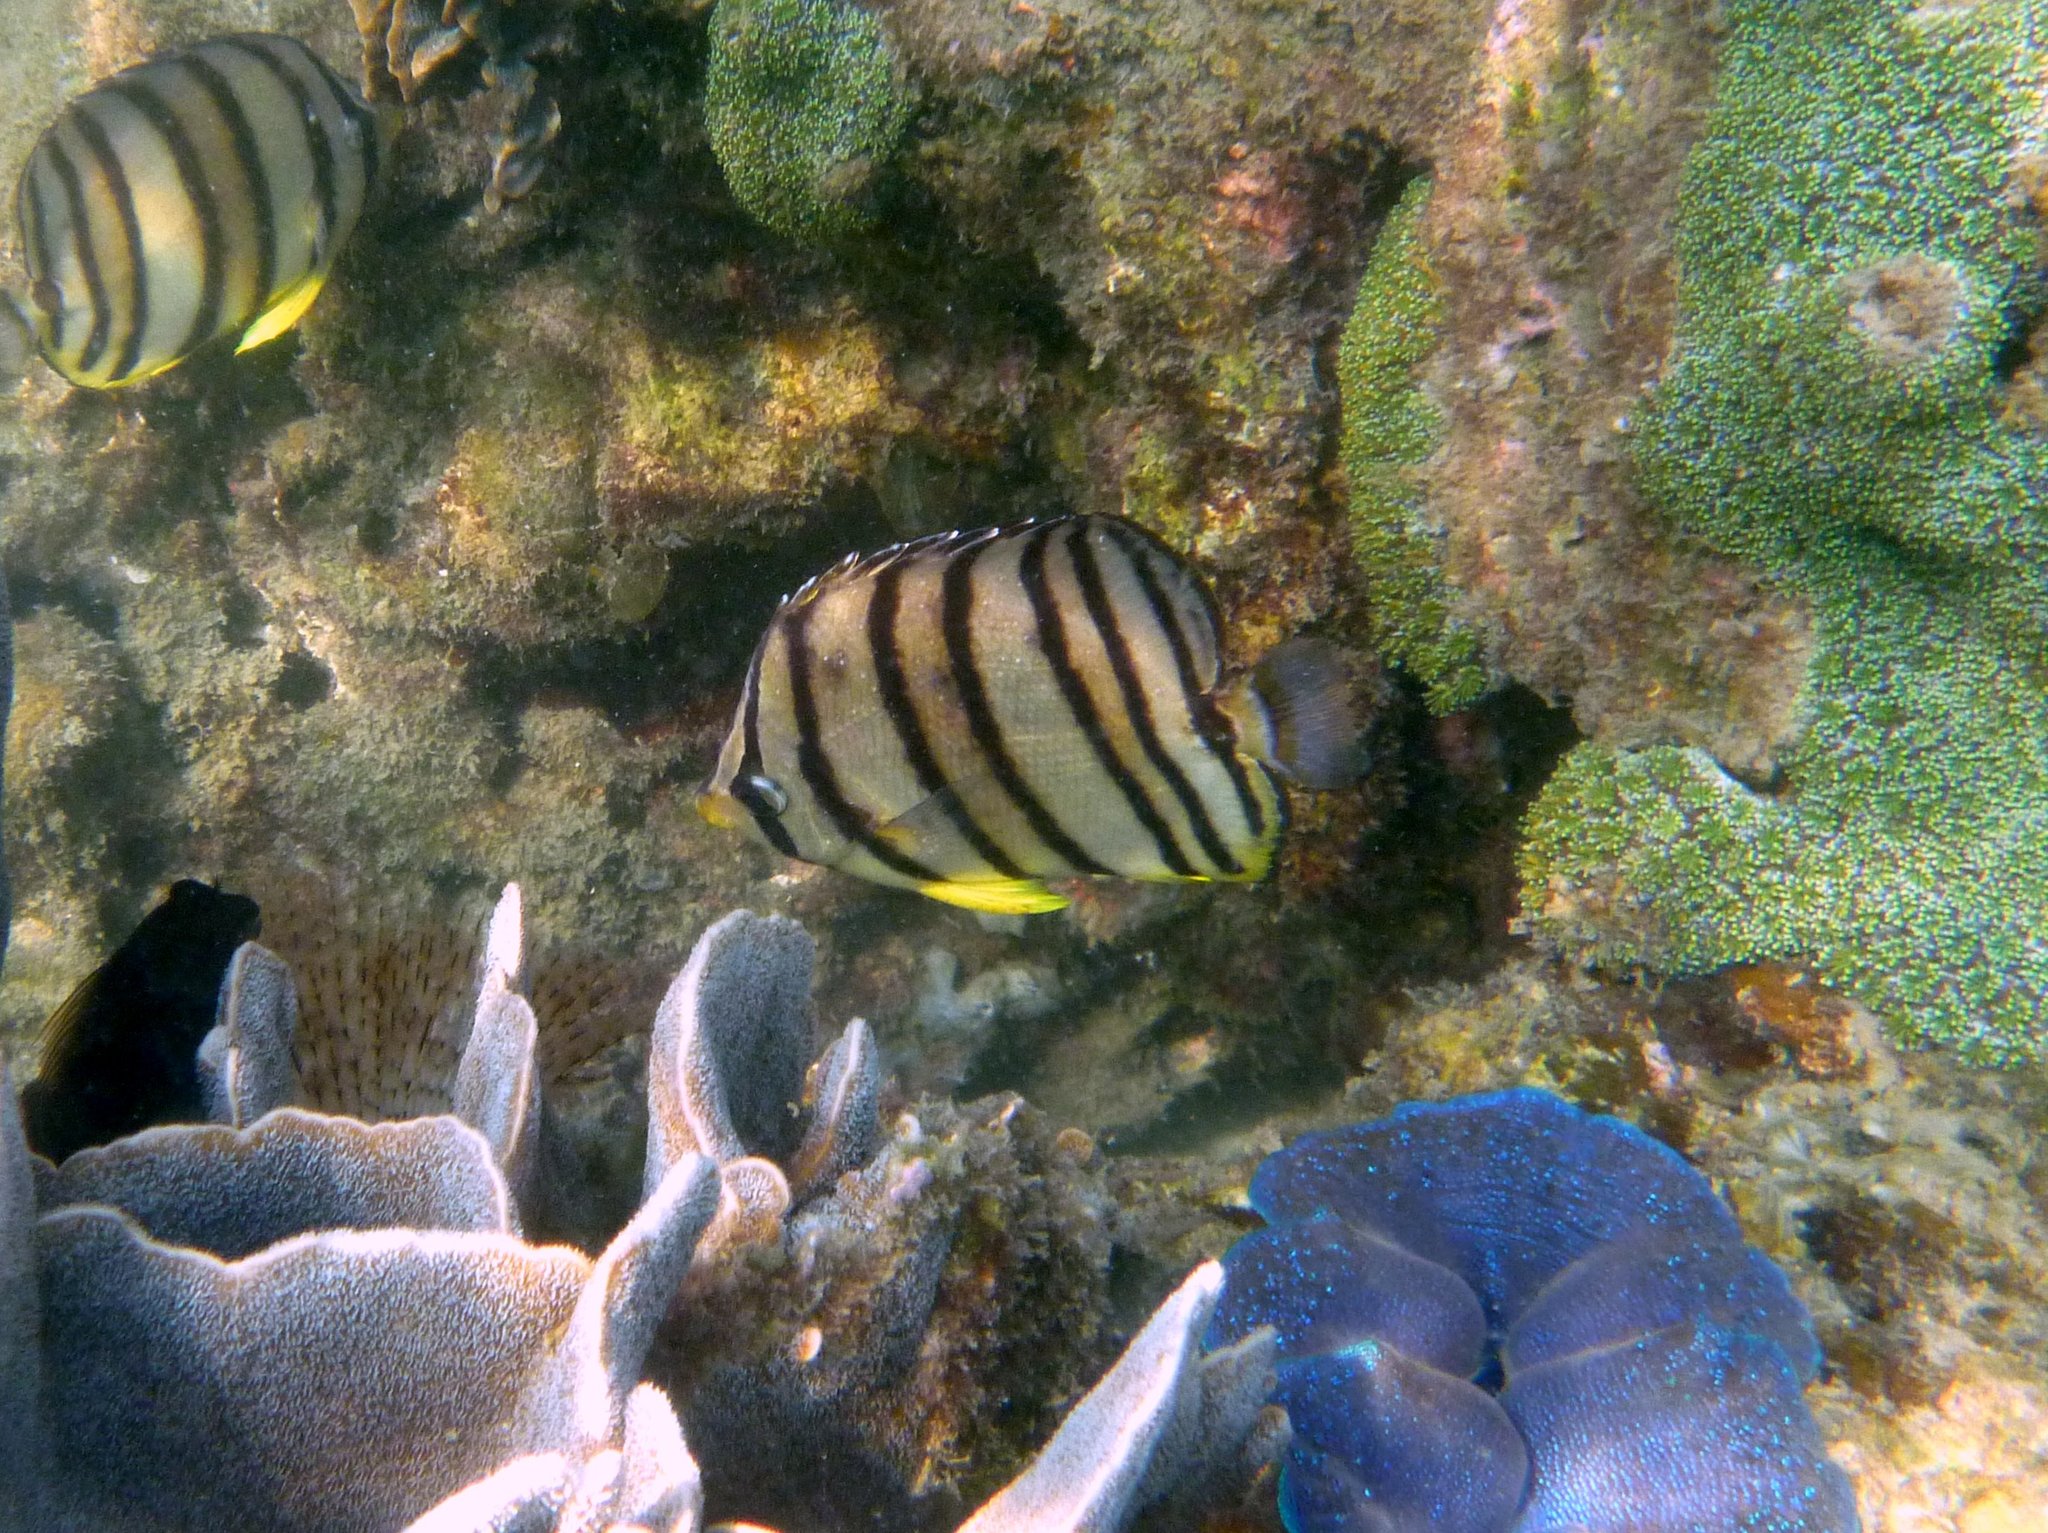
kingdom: Animalia
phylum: Chordata
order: Perciformes
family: Chaetodontidae
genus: Chaetodon
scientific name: Chaetodon octofasciatus
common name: Eightband butterflyfish
